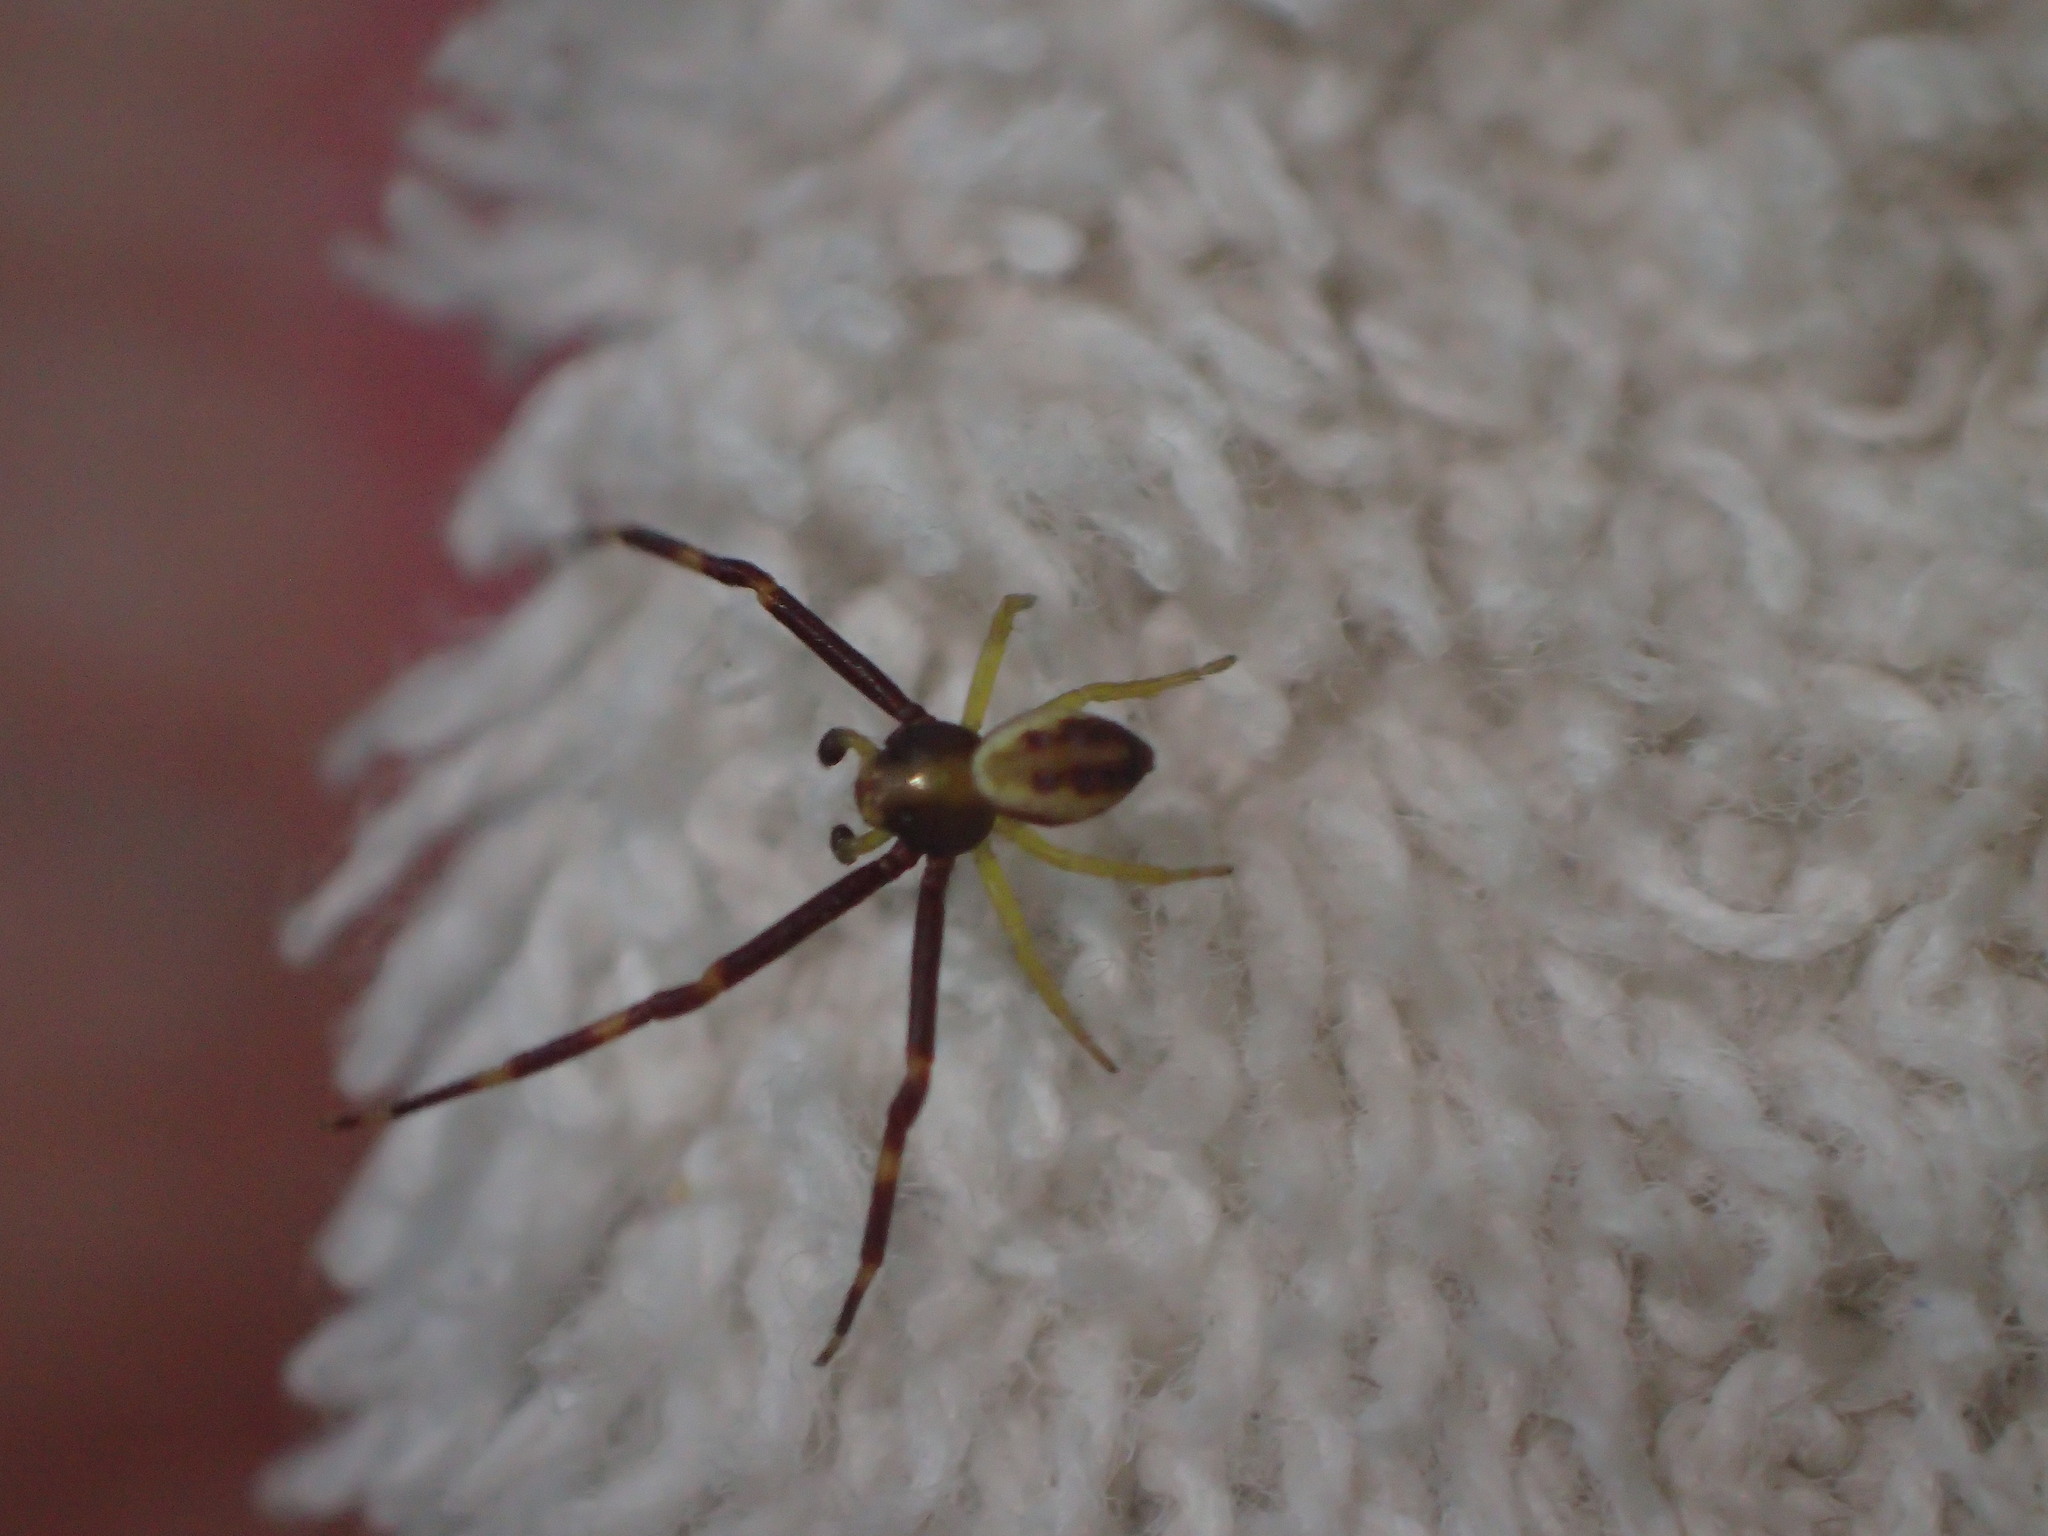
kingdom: Animalia
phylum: Arthropoda
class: Arachnida
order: Araneae
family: Thomisidae
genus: Misumena
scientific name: Misumena vatia
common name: Goldenrod crab spider
